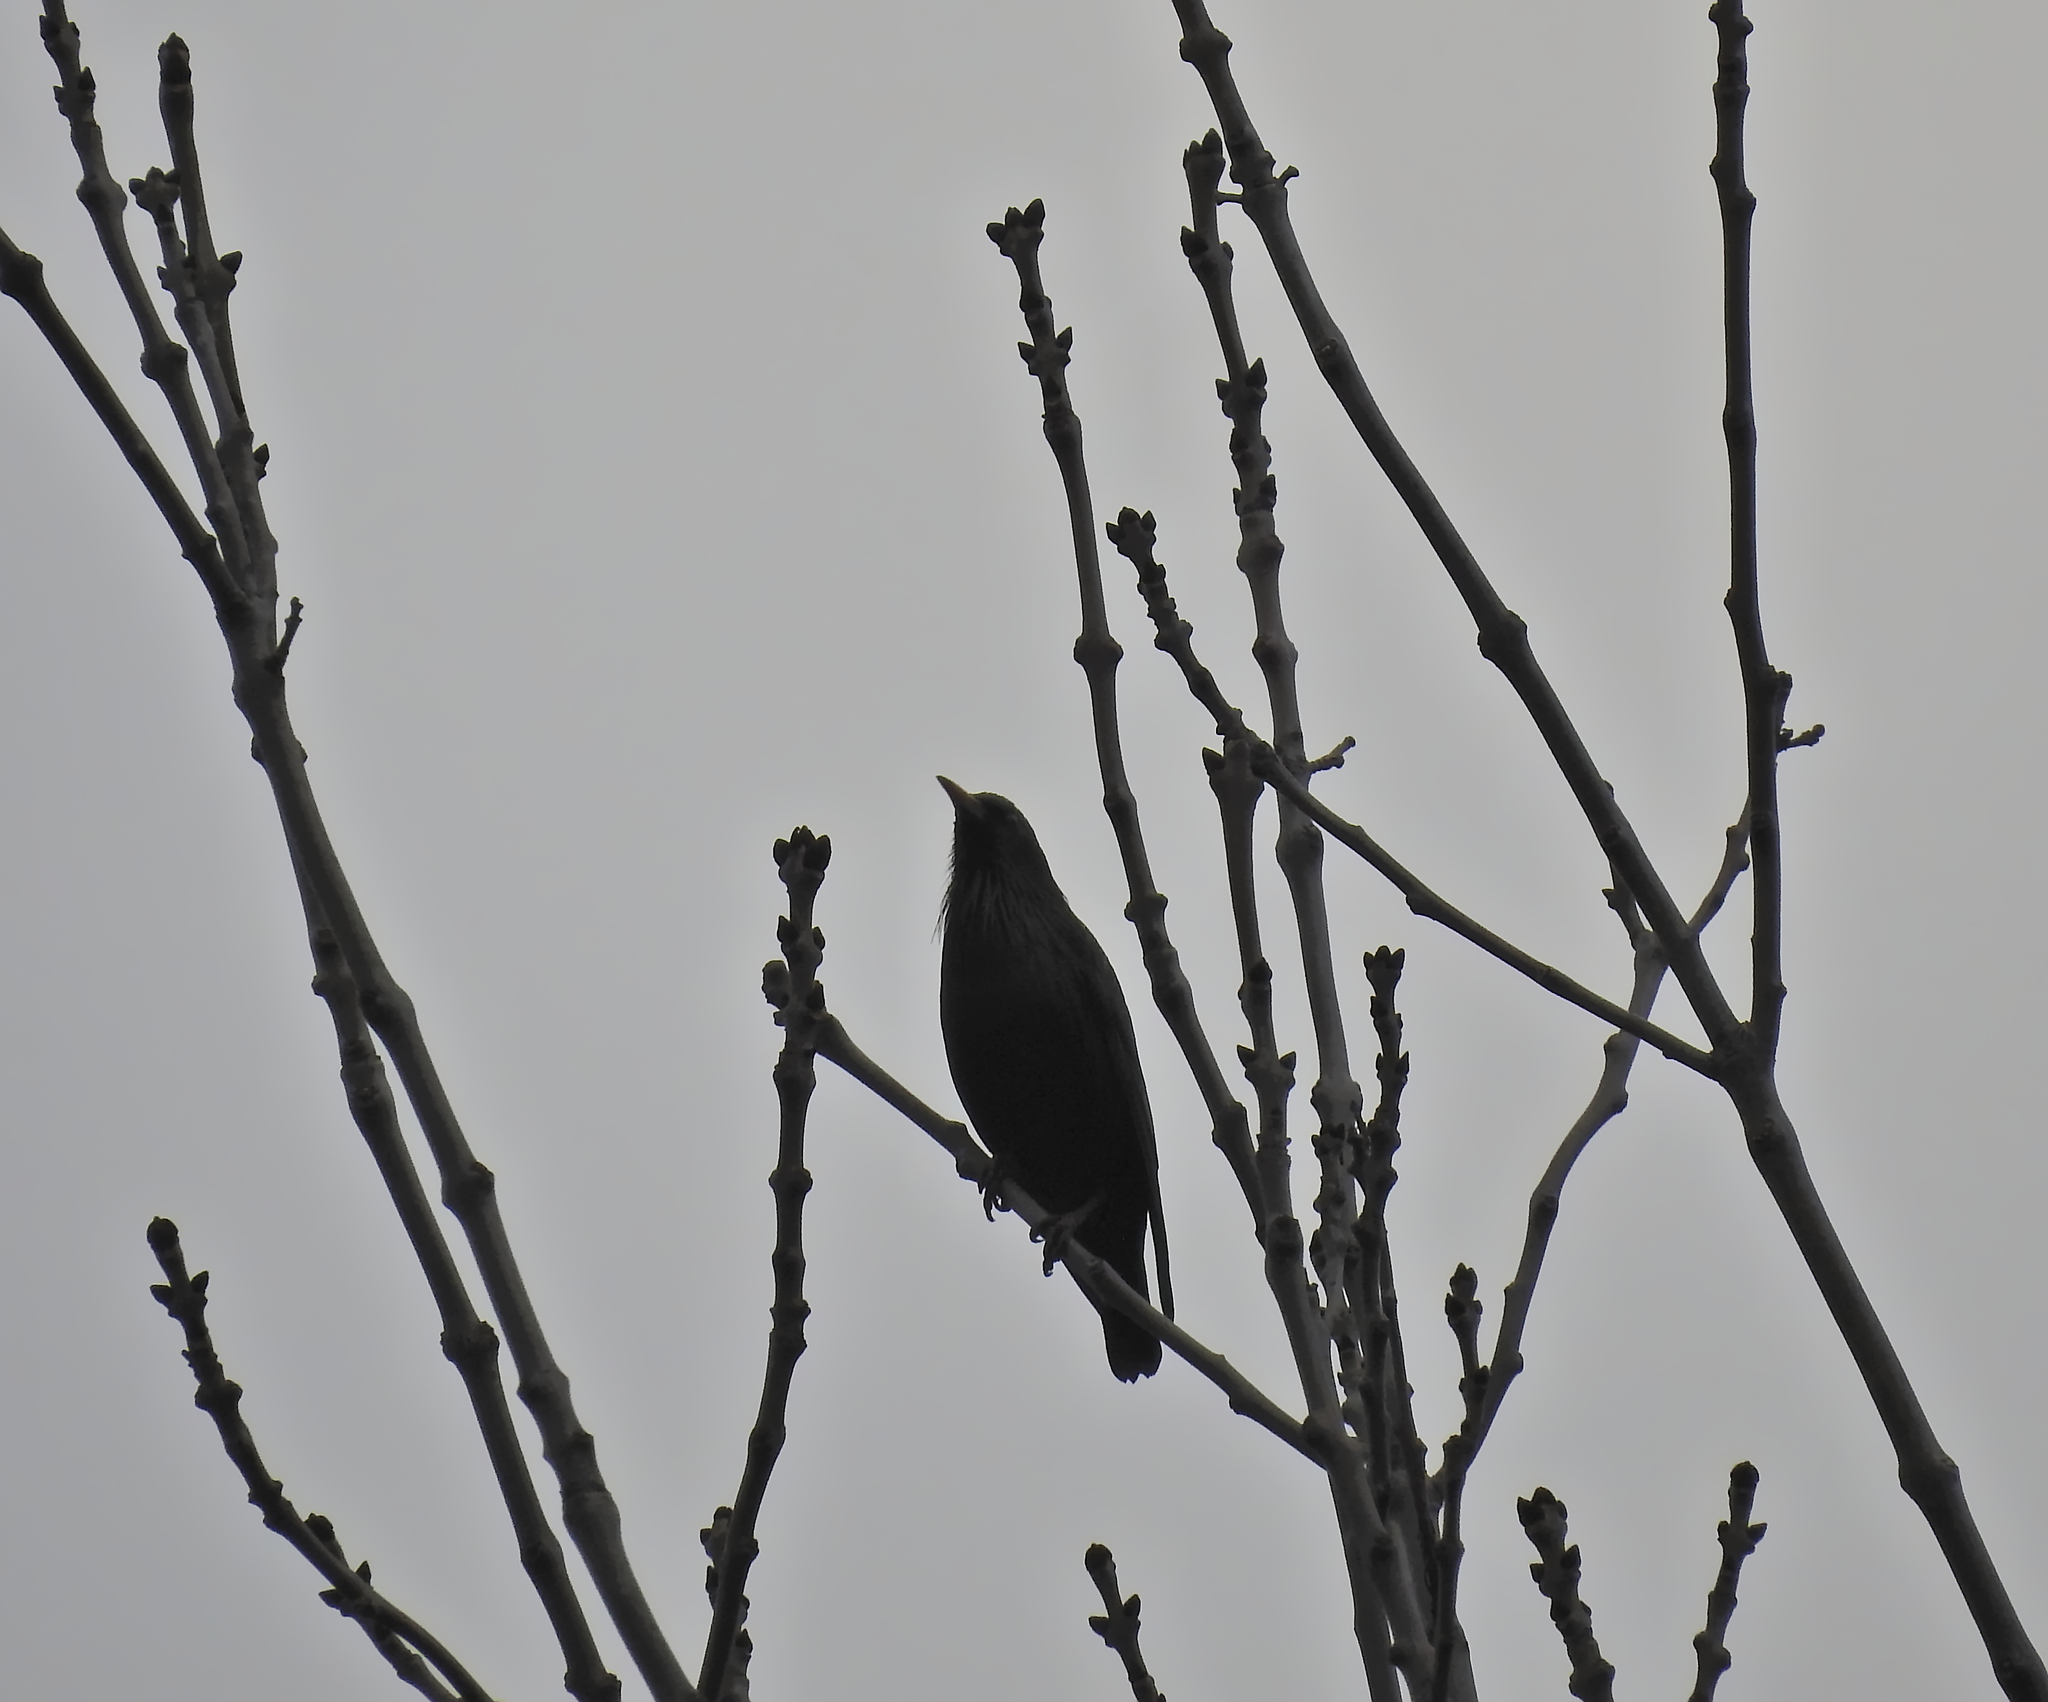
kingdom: Animalia
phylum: Chordata
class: Aves
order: Passeriformes
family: Sturnidae
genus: Sturnus
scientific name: Sturnus unicolor
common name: Spotless starling
